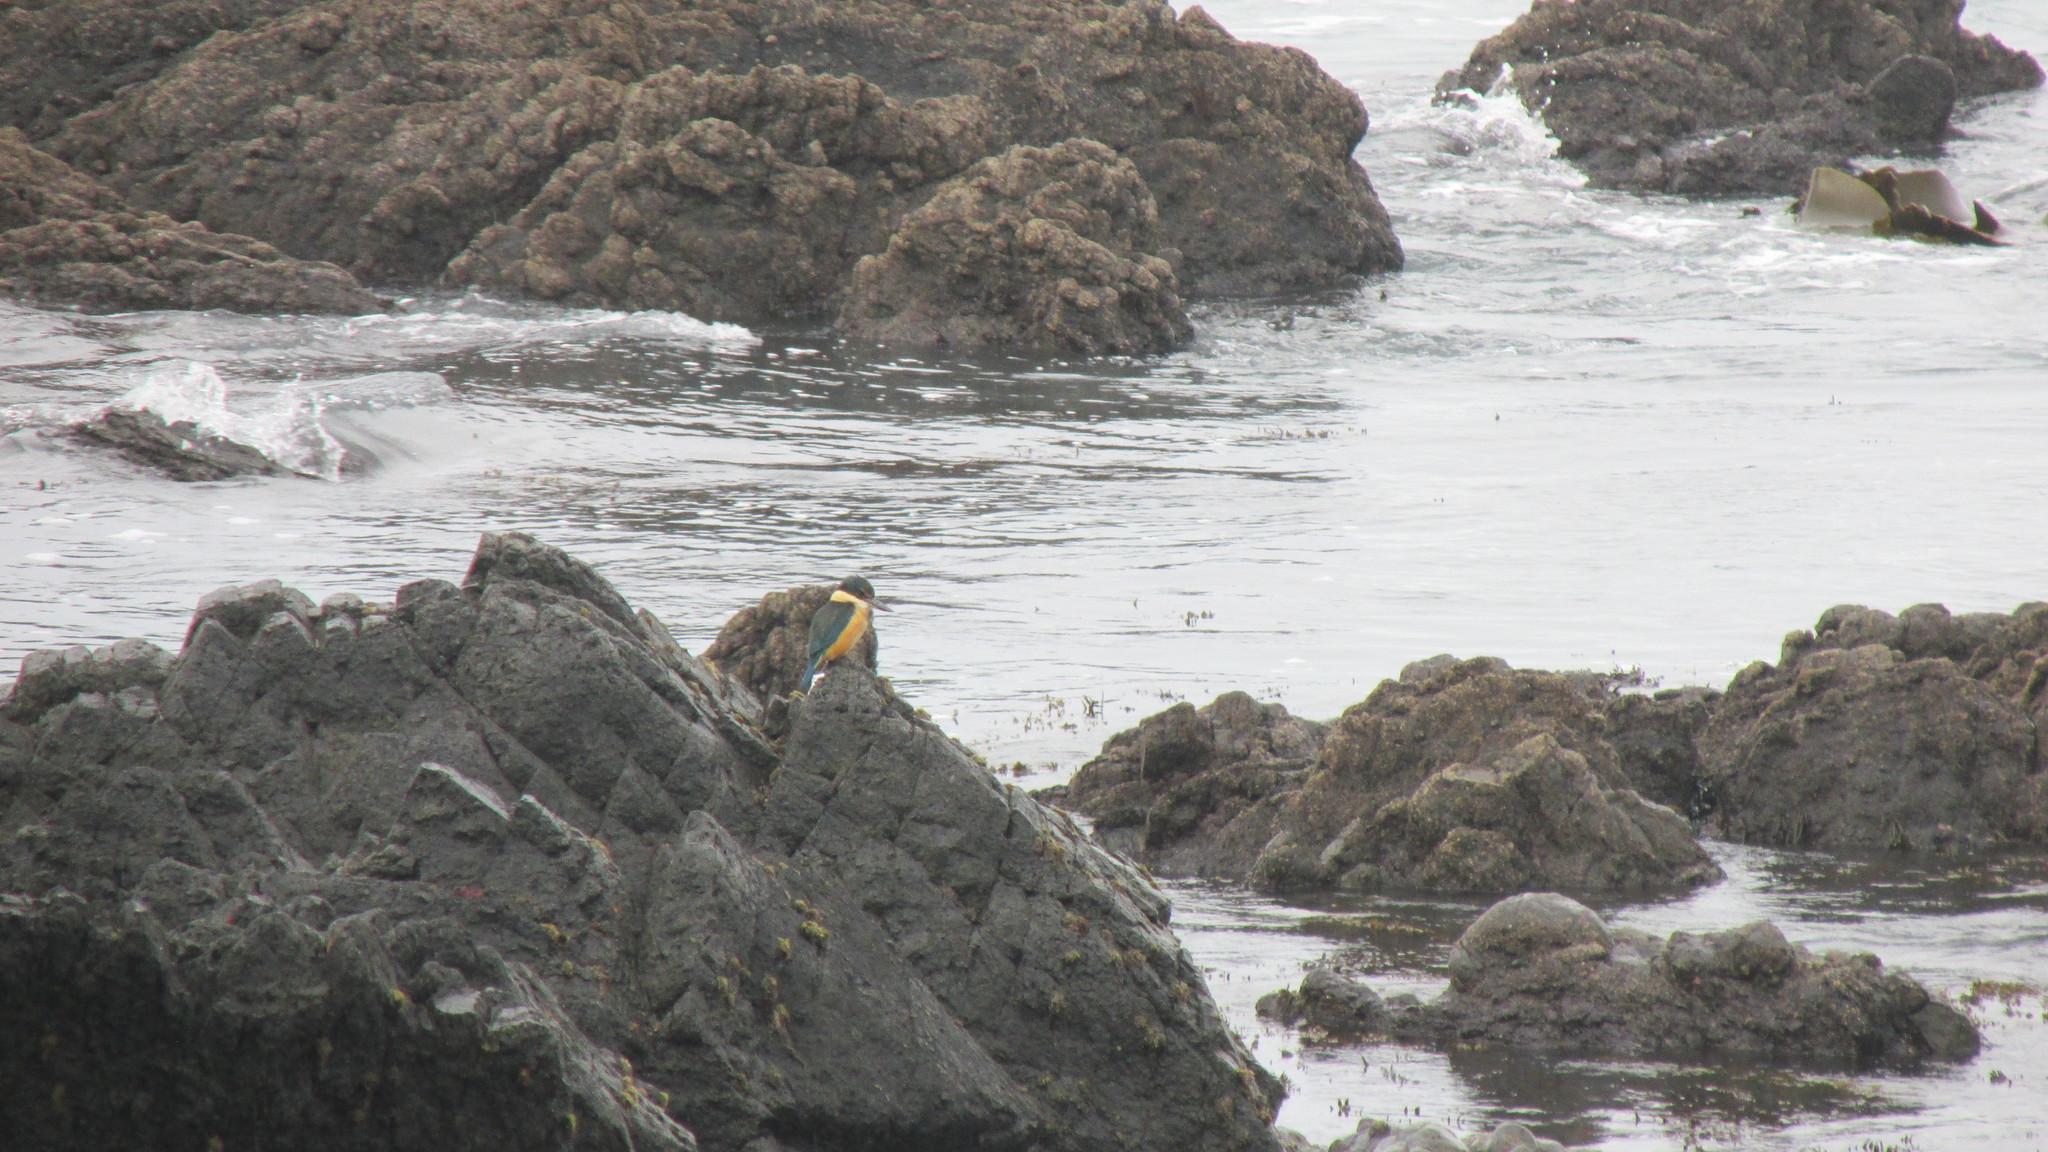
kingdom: Animalia
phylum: Chordata
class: Aves
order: Coraciiformes
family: Alcedinidae
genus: Todiramphus
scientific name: Todiramphus sanctus
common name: Sacred kingfisher
